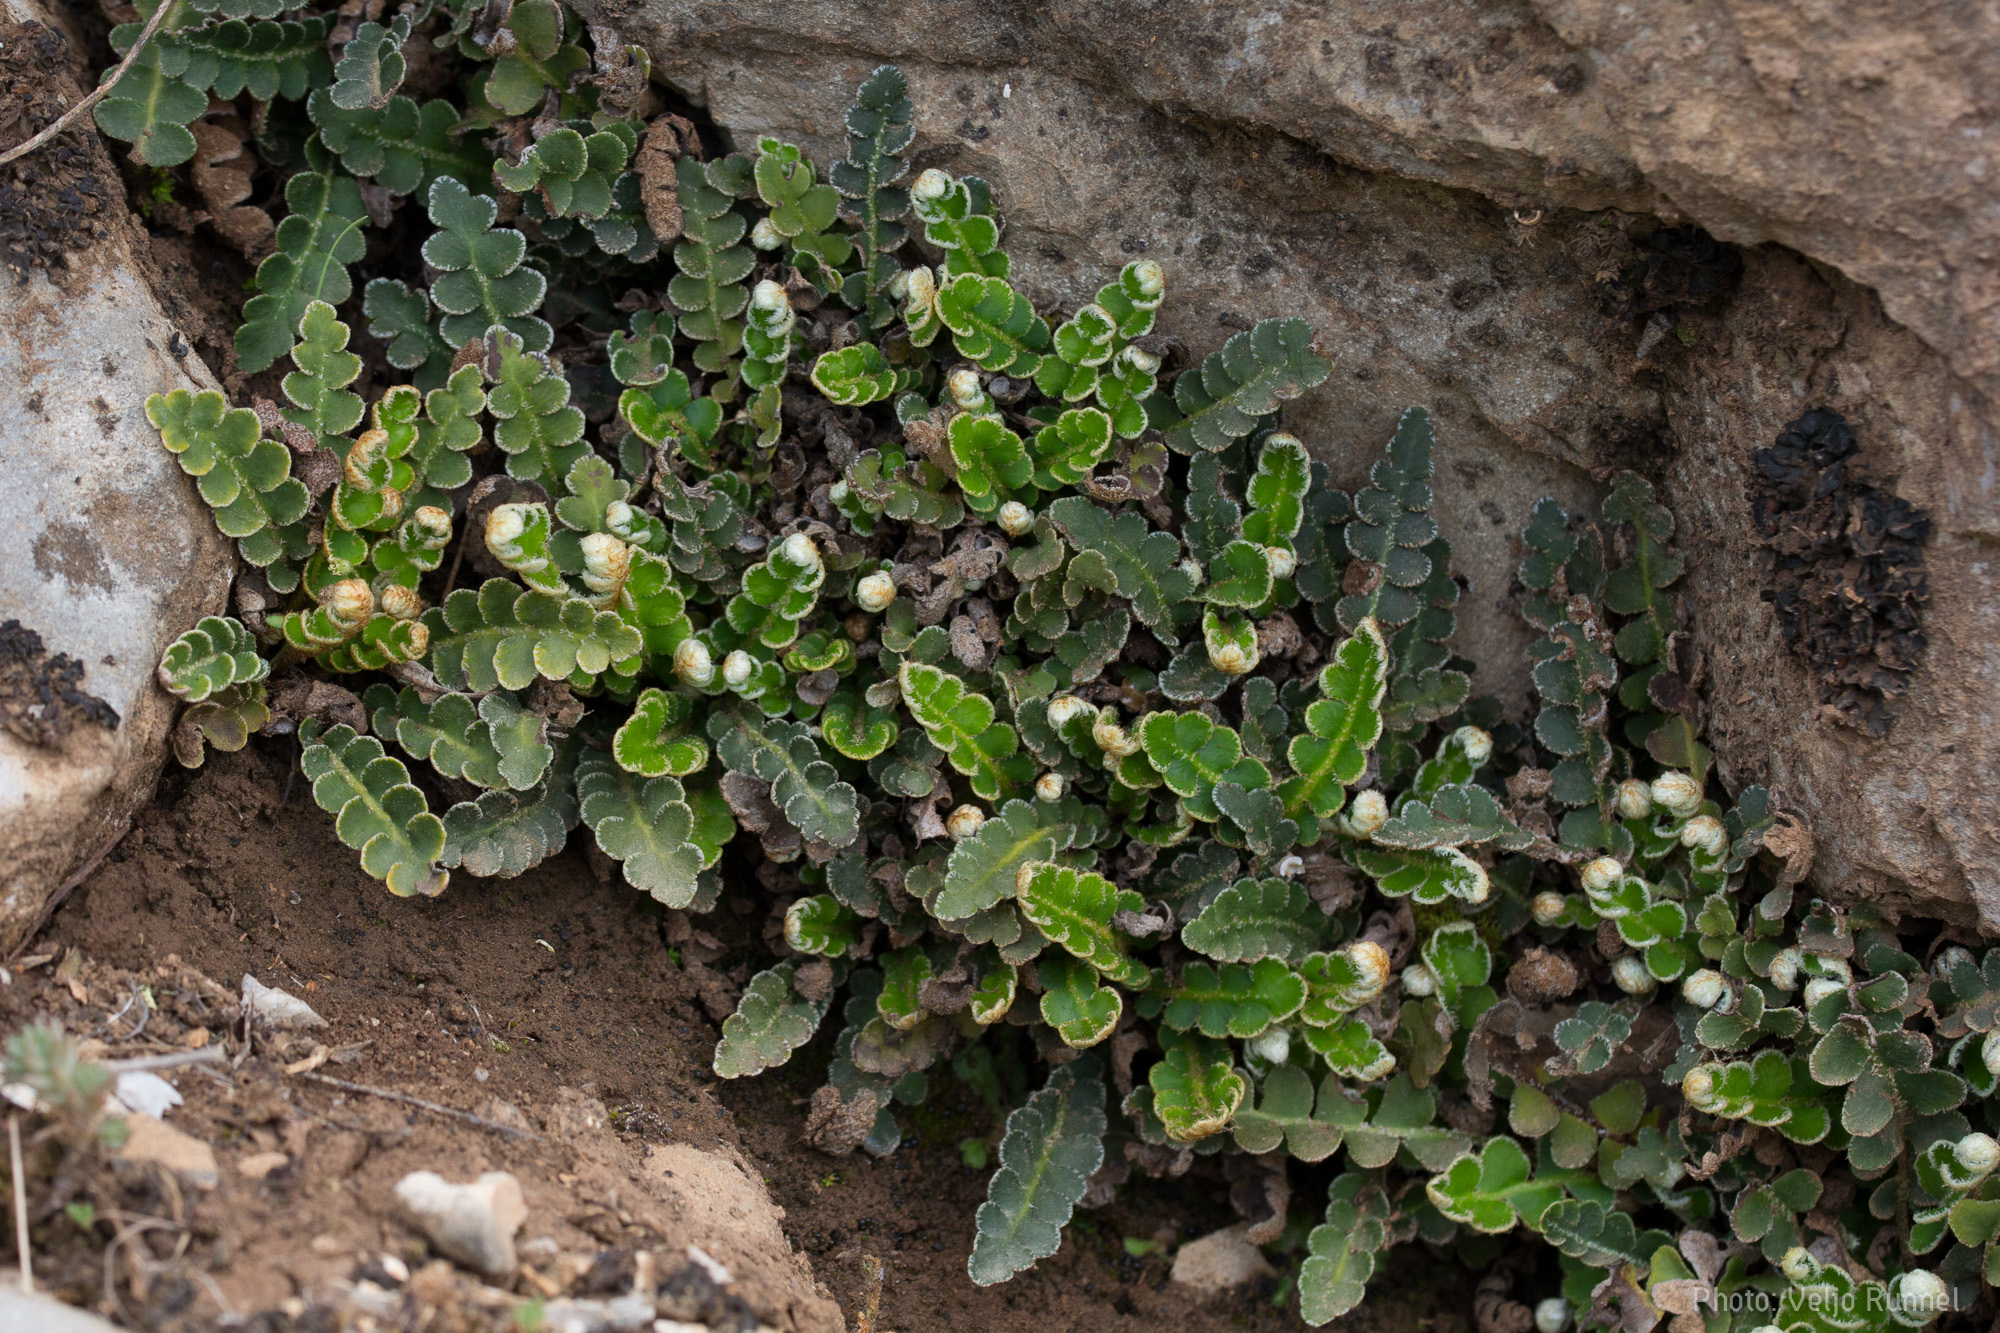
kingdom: Plantae
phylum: Tracheophyta
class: Polypodiopsida
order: Polypodiales
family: Aspleniaceae
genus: Asplenium
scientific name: Asplenium ceterach
